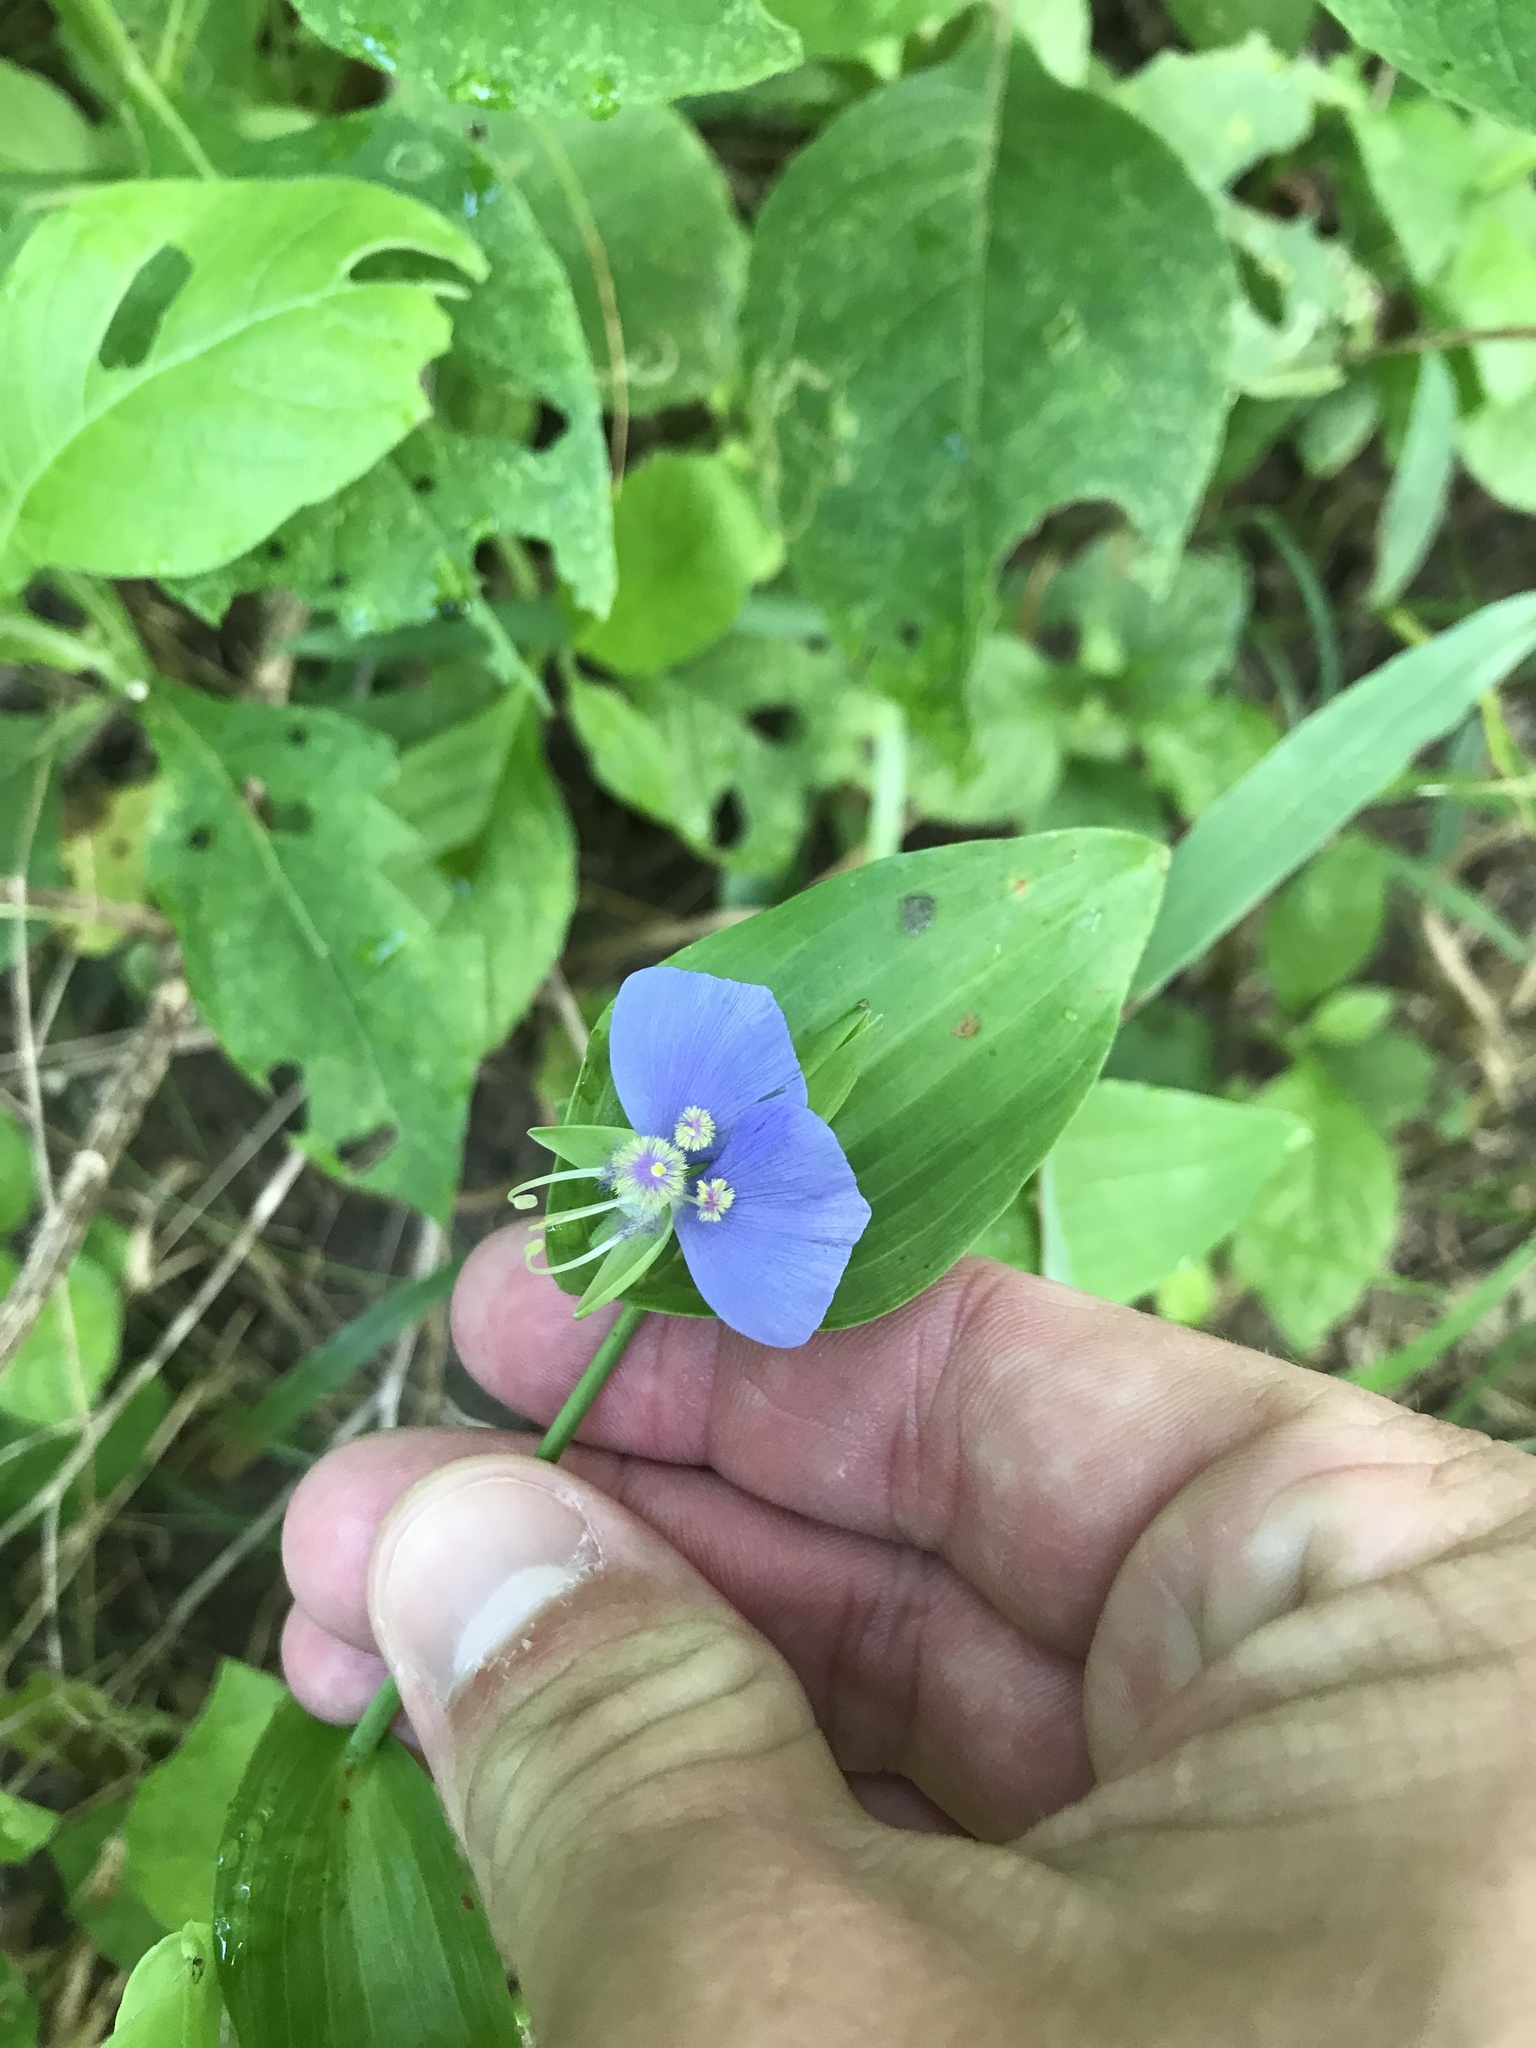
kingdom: Plantae
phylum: Tracheophyta
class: Liliopsida
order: Commelinales
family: Commelinaceae
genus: Tinantia
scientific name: Tinantia anomala
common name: False dayflower
